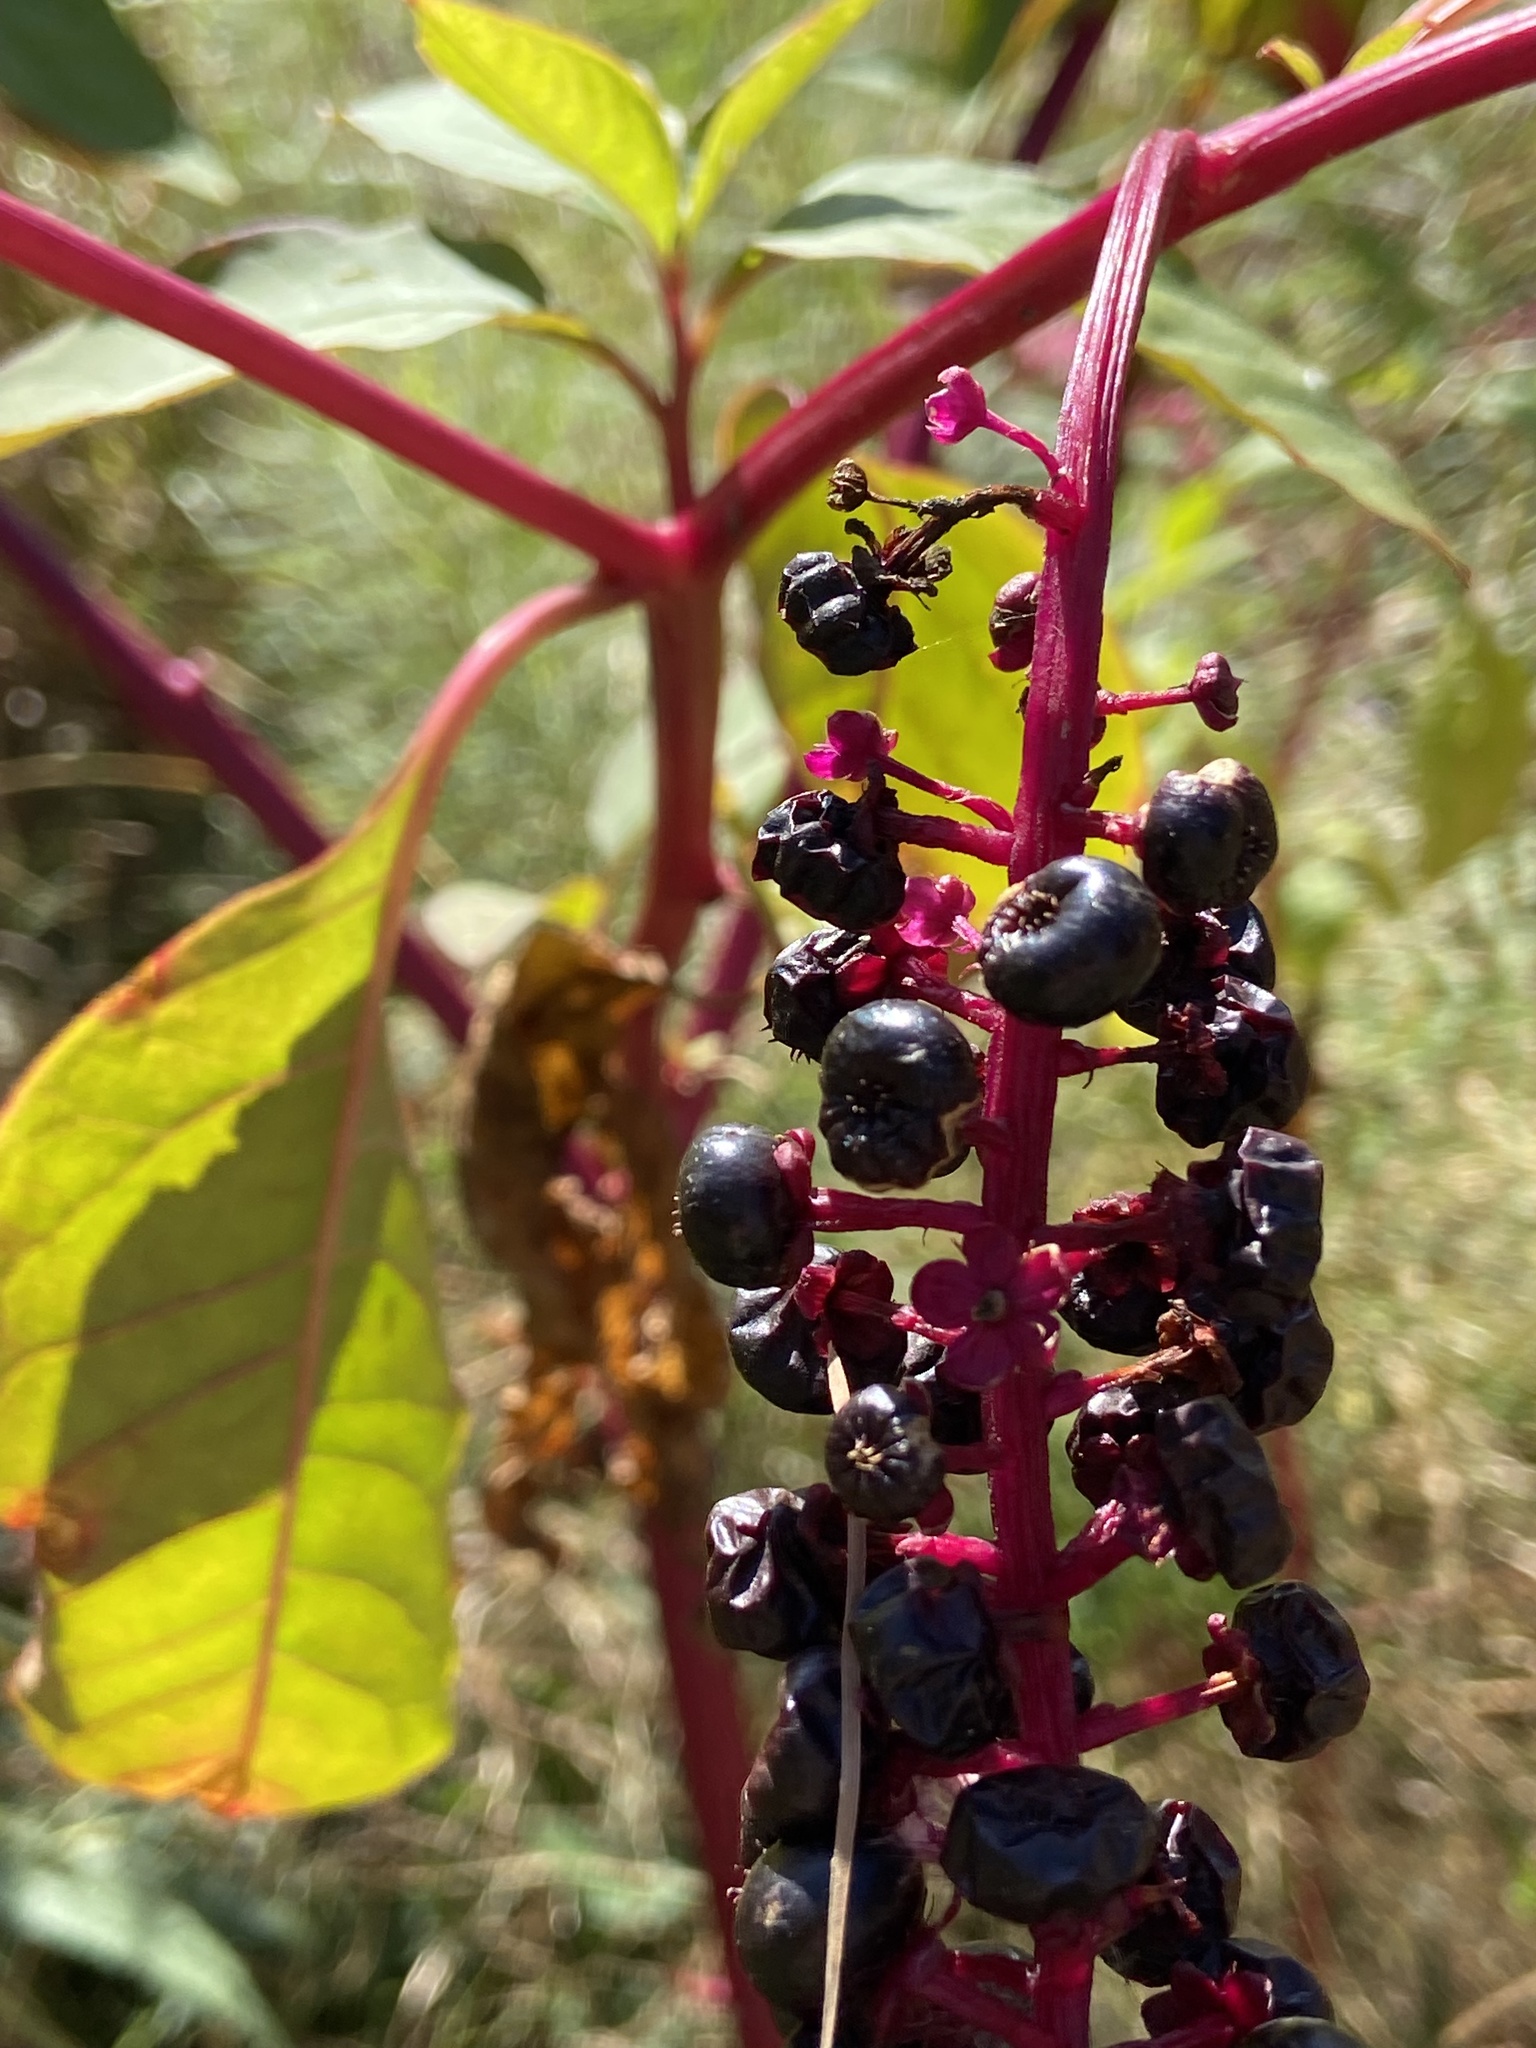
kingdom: Plantae
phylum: Tracheophyta
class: Magnoliopsida
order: Caryophyllales
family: Phytolaccaceae
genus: Phytolacca
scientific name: Phytolacca americana
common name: American pokeweed
